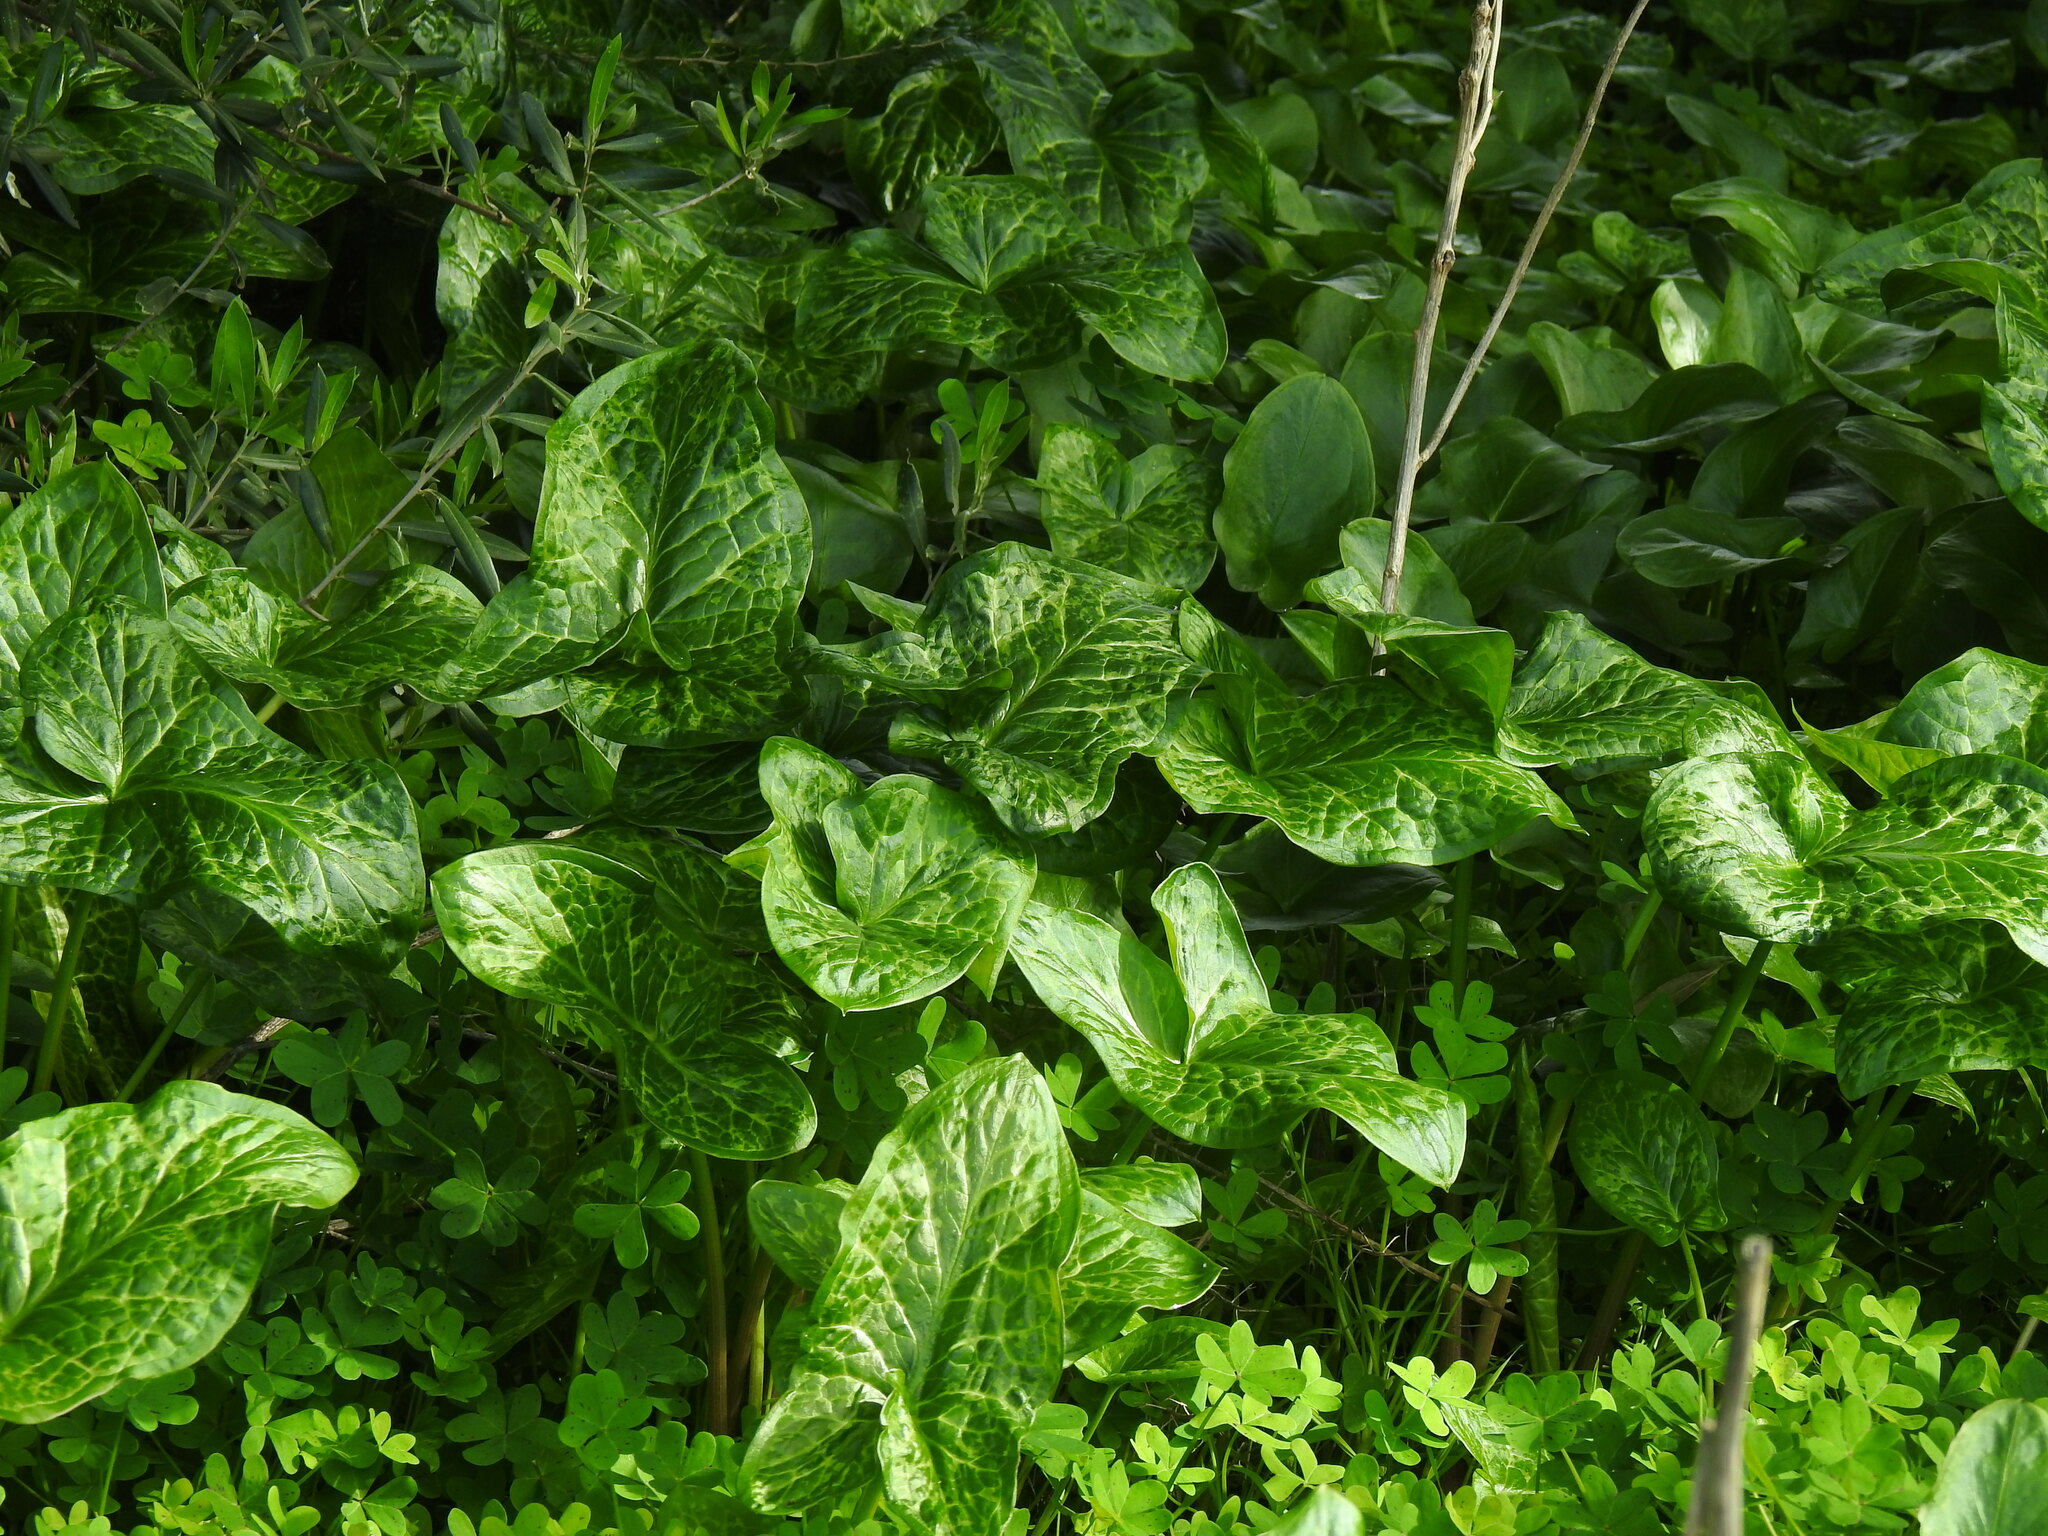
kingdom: Plantae
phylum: Tracheophyta
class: Liliopsida
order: Alismatales
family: Araceae
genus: Arum
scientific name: Arum italicum
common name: Italian lords-and-ladies
